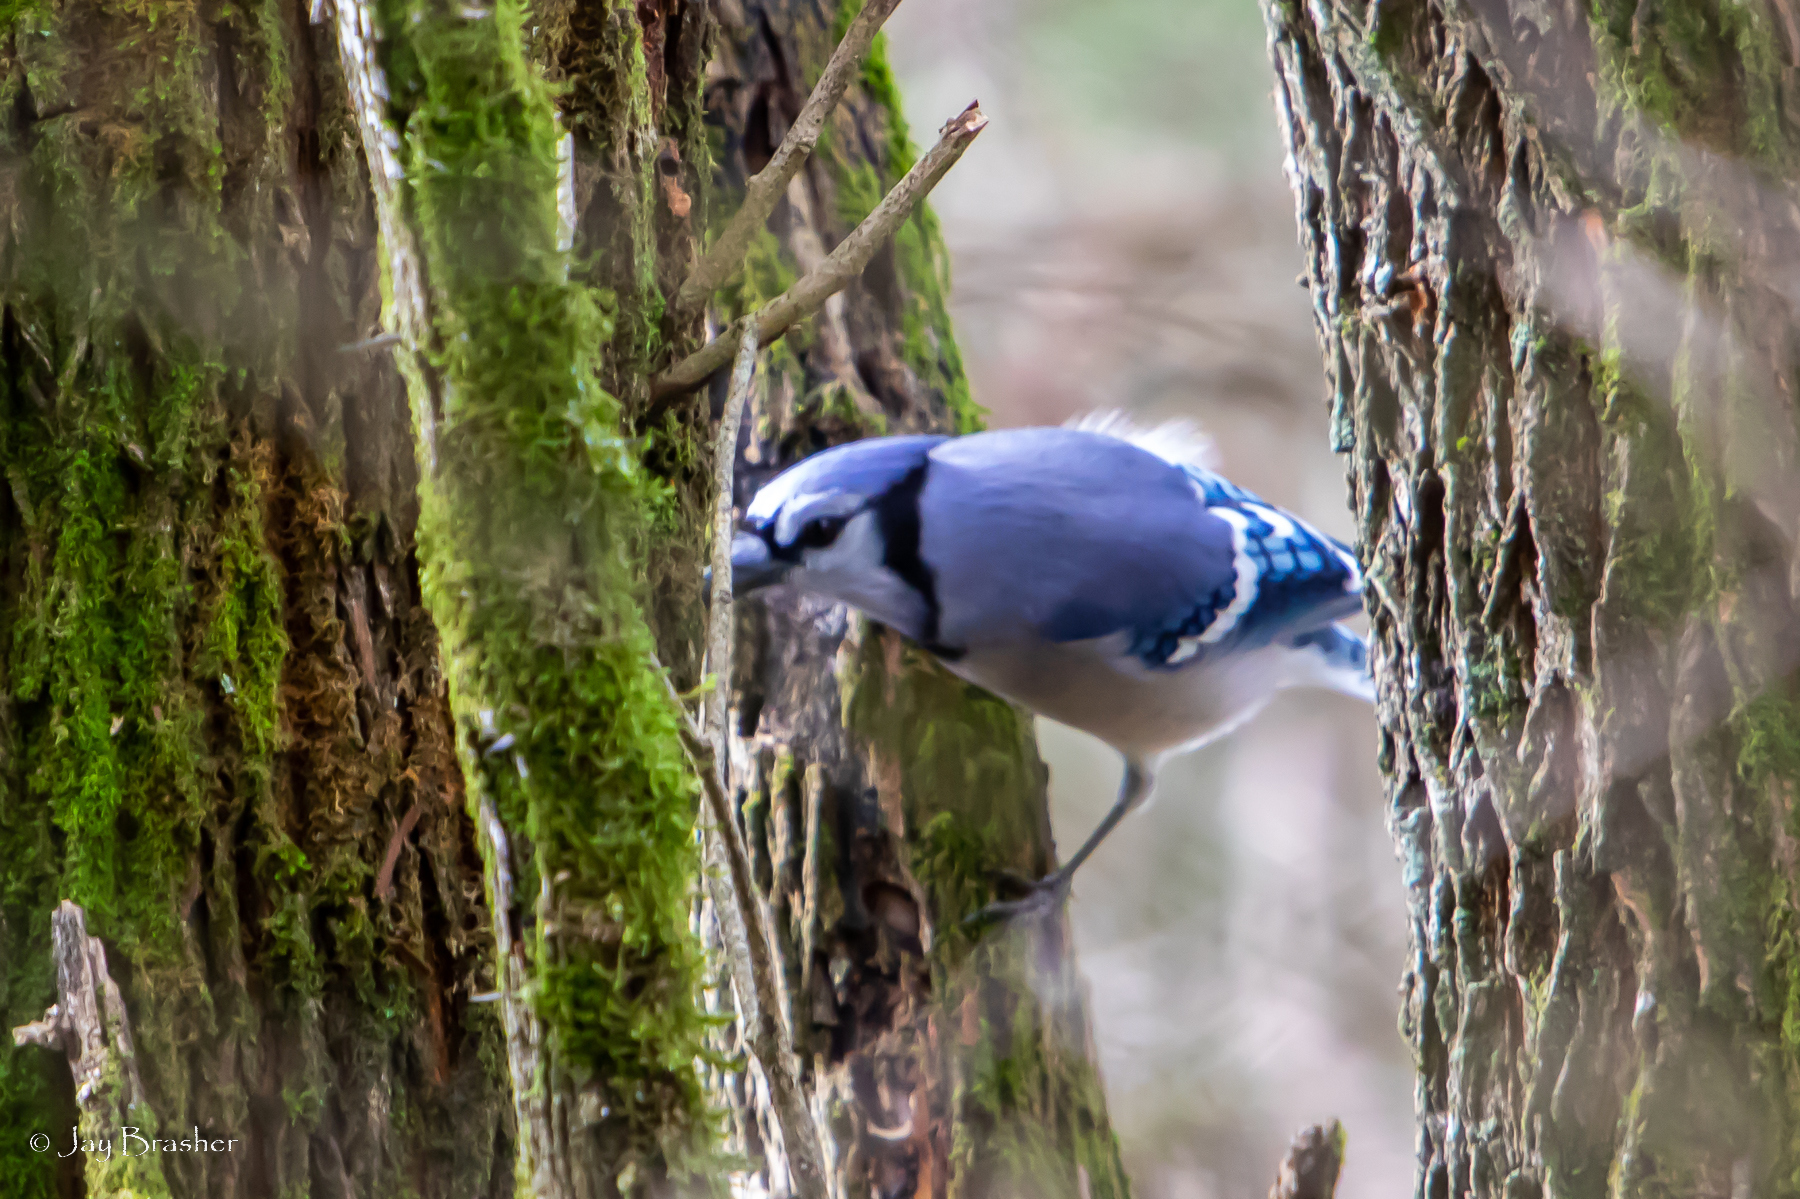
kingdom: Animalia
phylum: Chordata
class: Aves
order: Passeriformes
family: Corvidae
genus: Cyanocitta
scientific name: Cyanocitta cristata
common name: Blue jay
